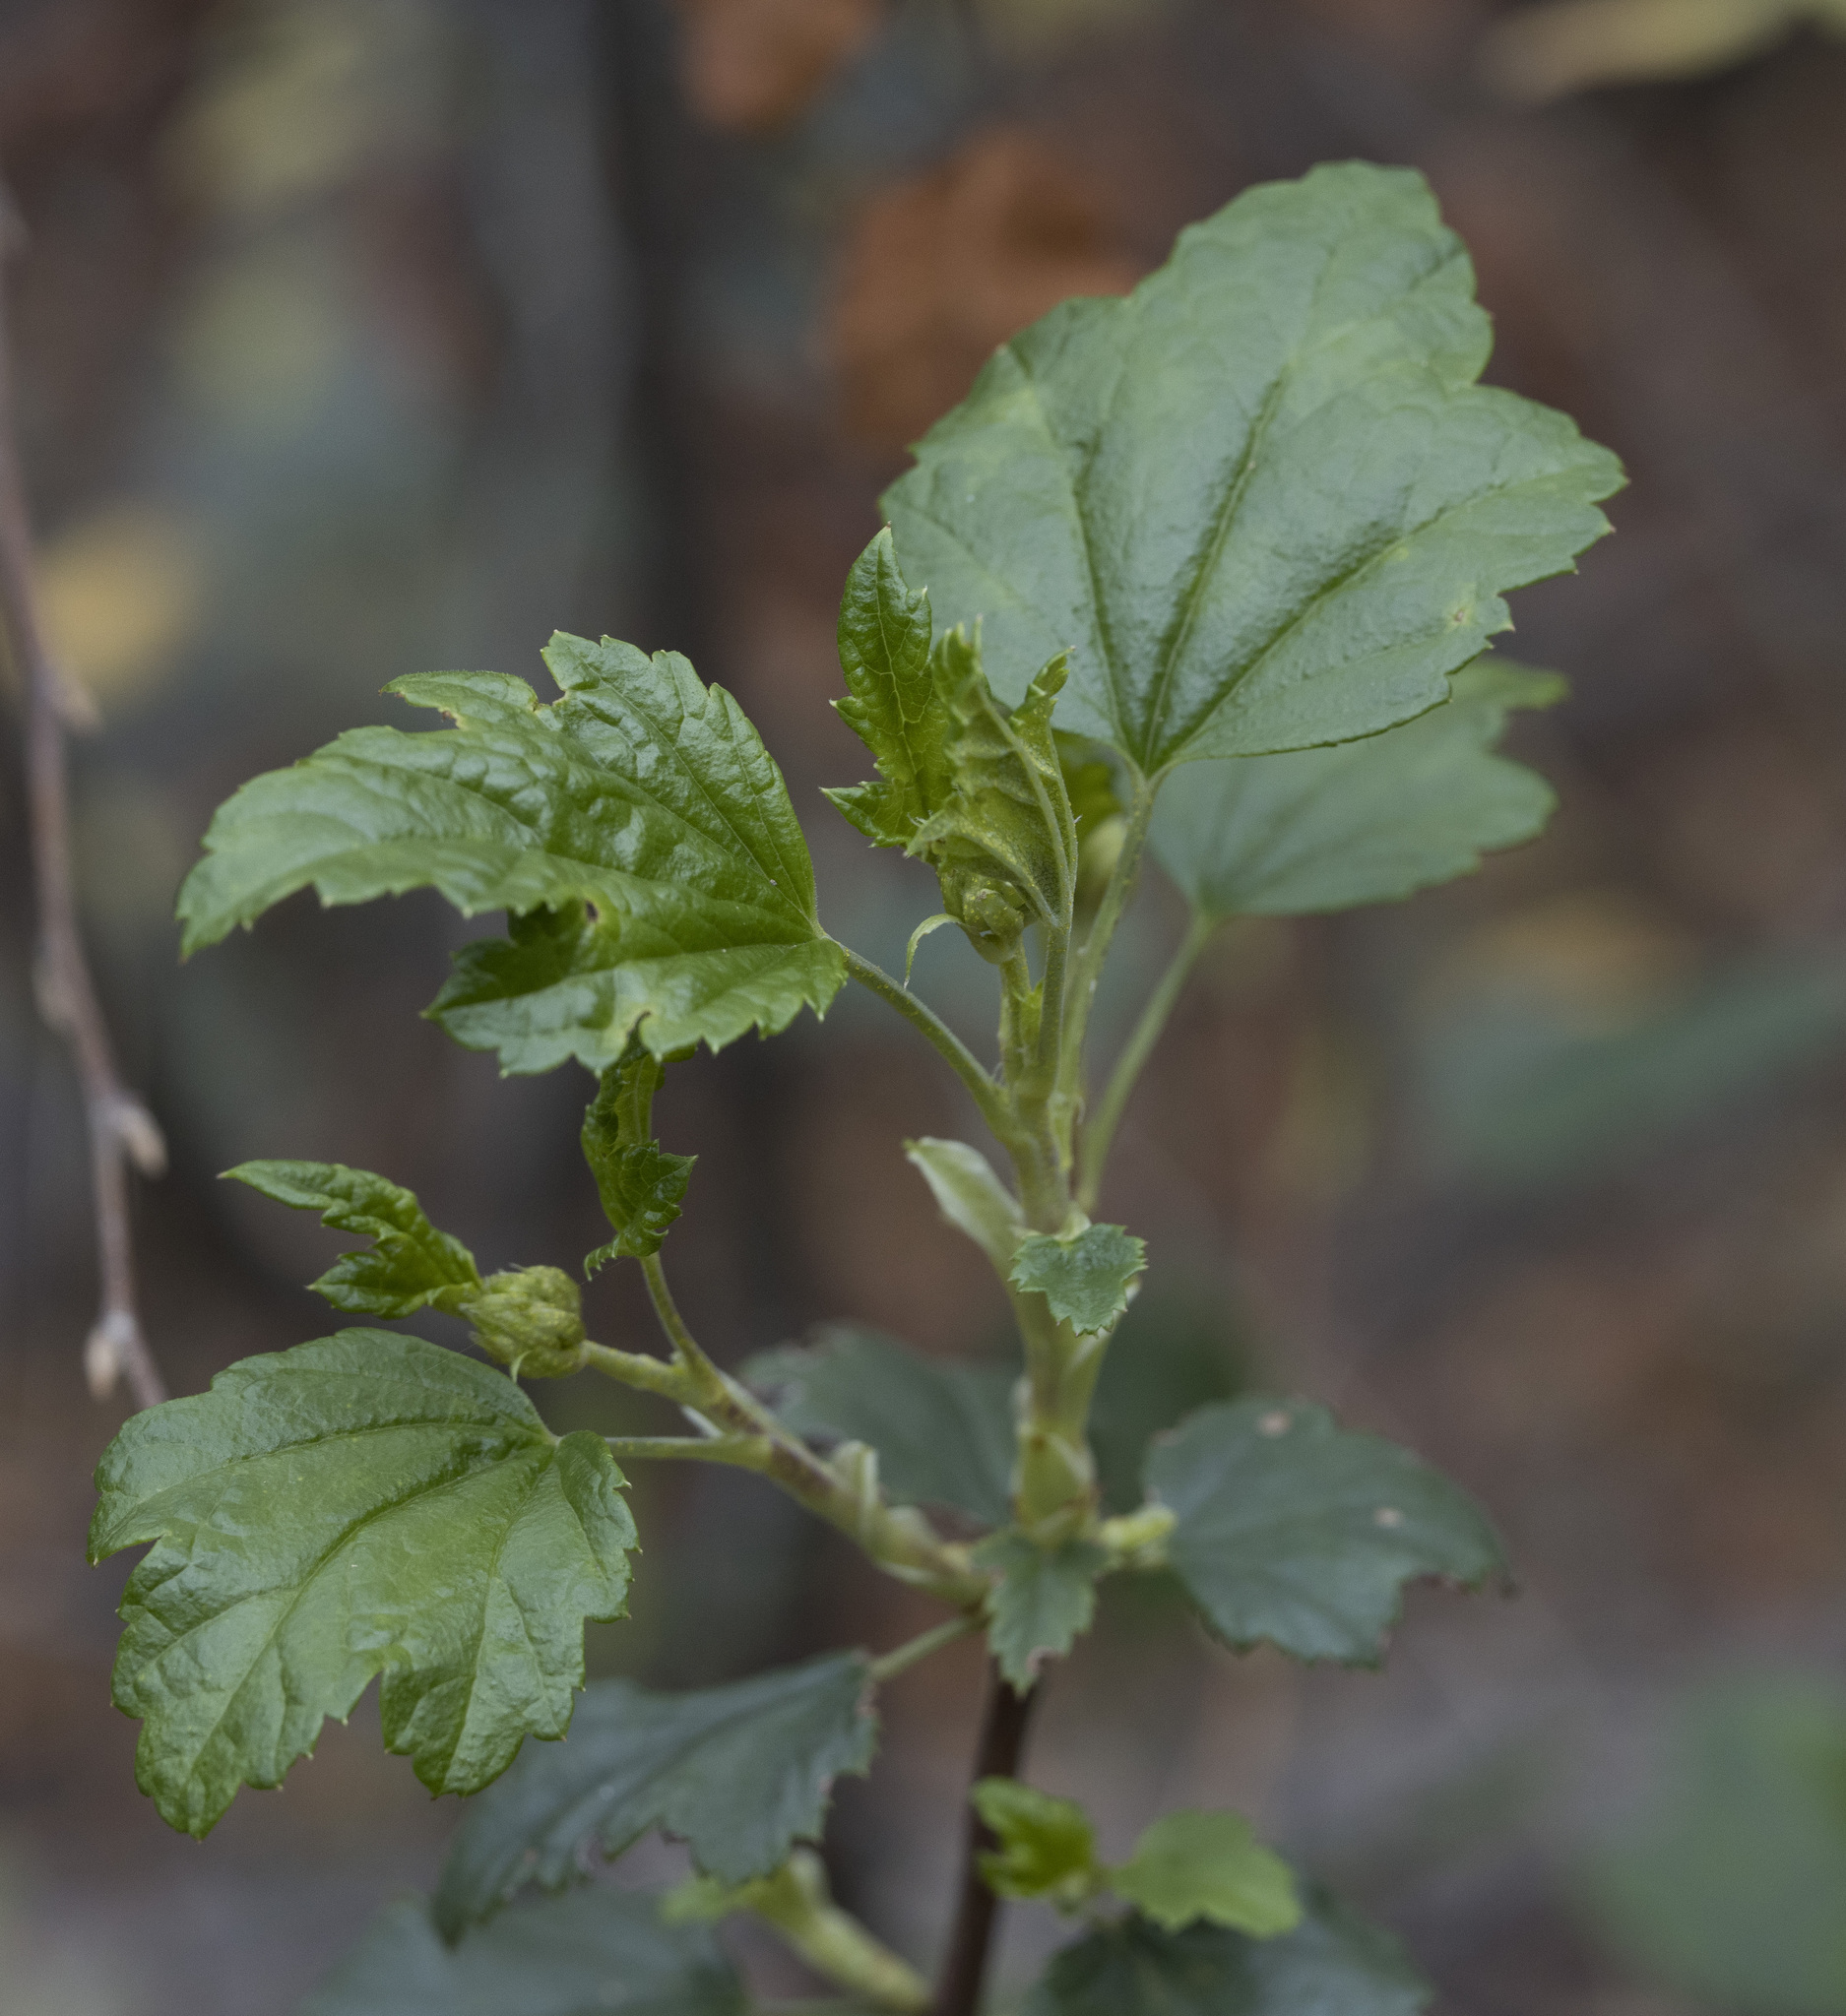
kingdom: Plantae
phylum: Tracheophyta
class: Magnoliopsida
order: Saxifragales
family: Grossulariaceae
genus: Ribes
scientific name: Ribes punctatum
